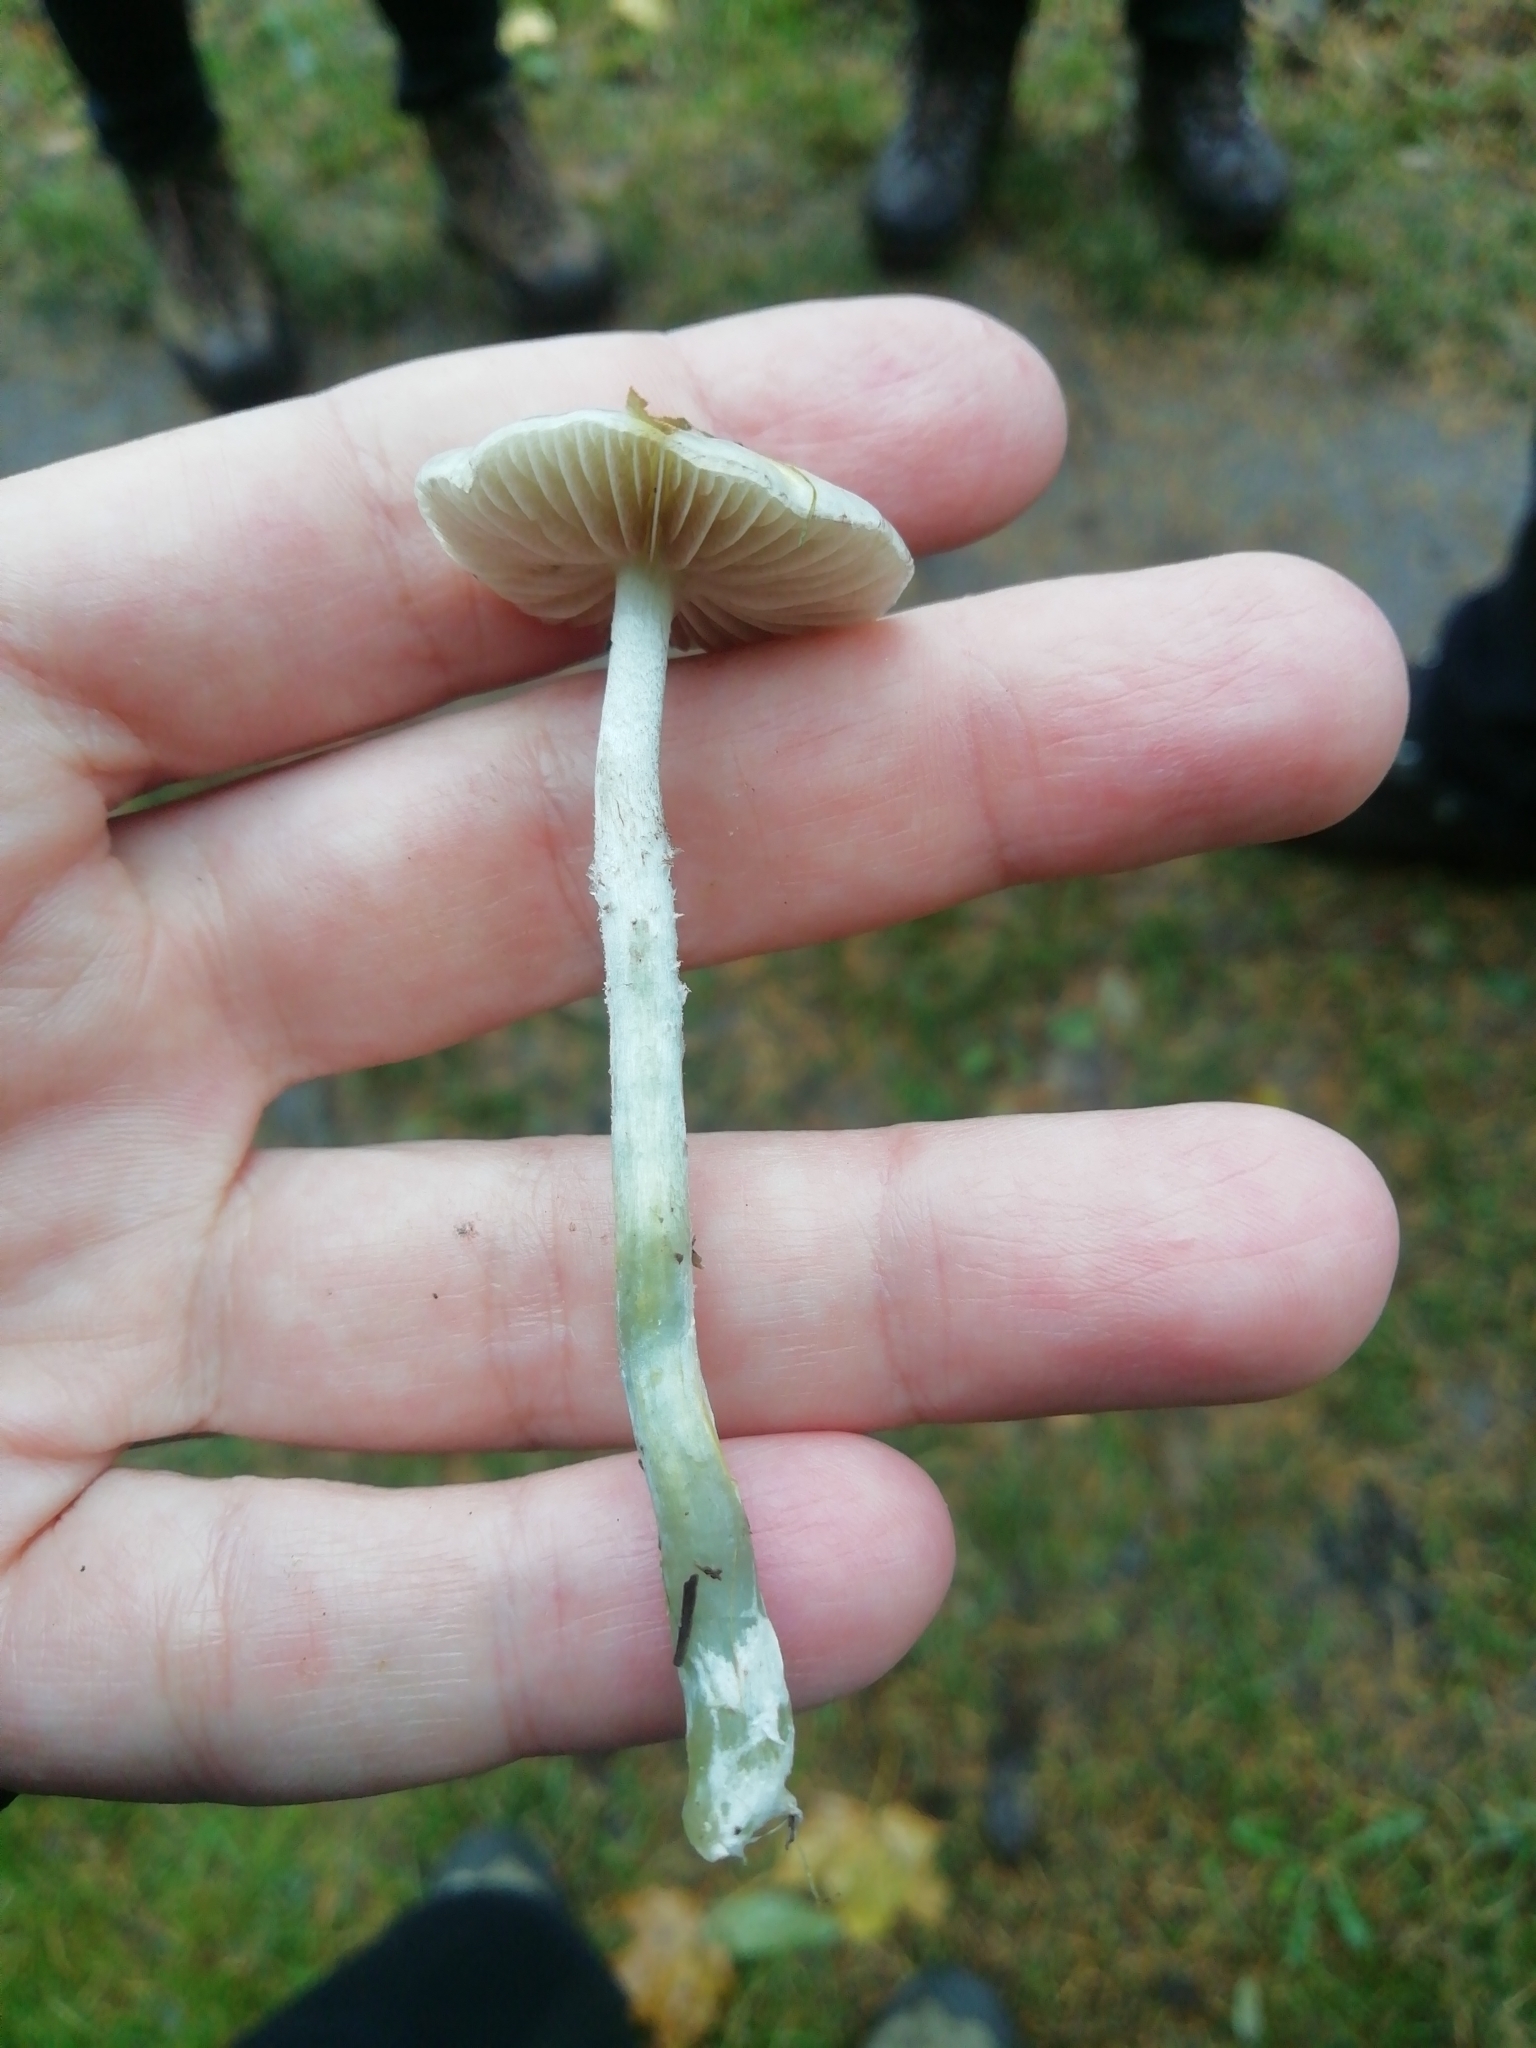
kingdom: Fungi
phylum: Basidiomycota
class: Agaricomycetes
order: Agaricales
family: Strophariaceae
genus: Stropharia
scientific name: Stropharia caerulea
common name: Blue roundhead
